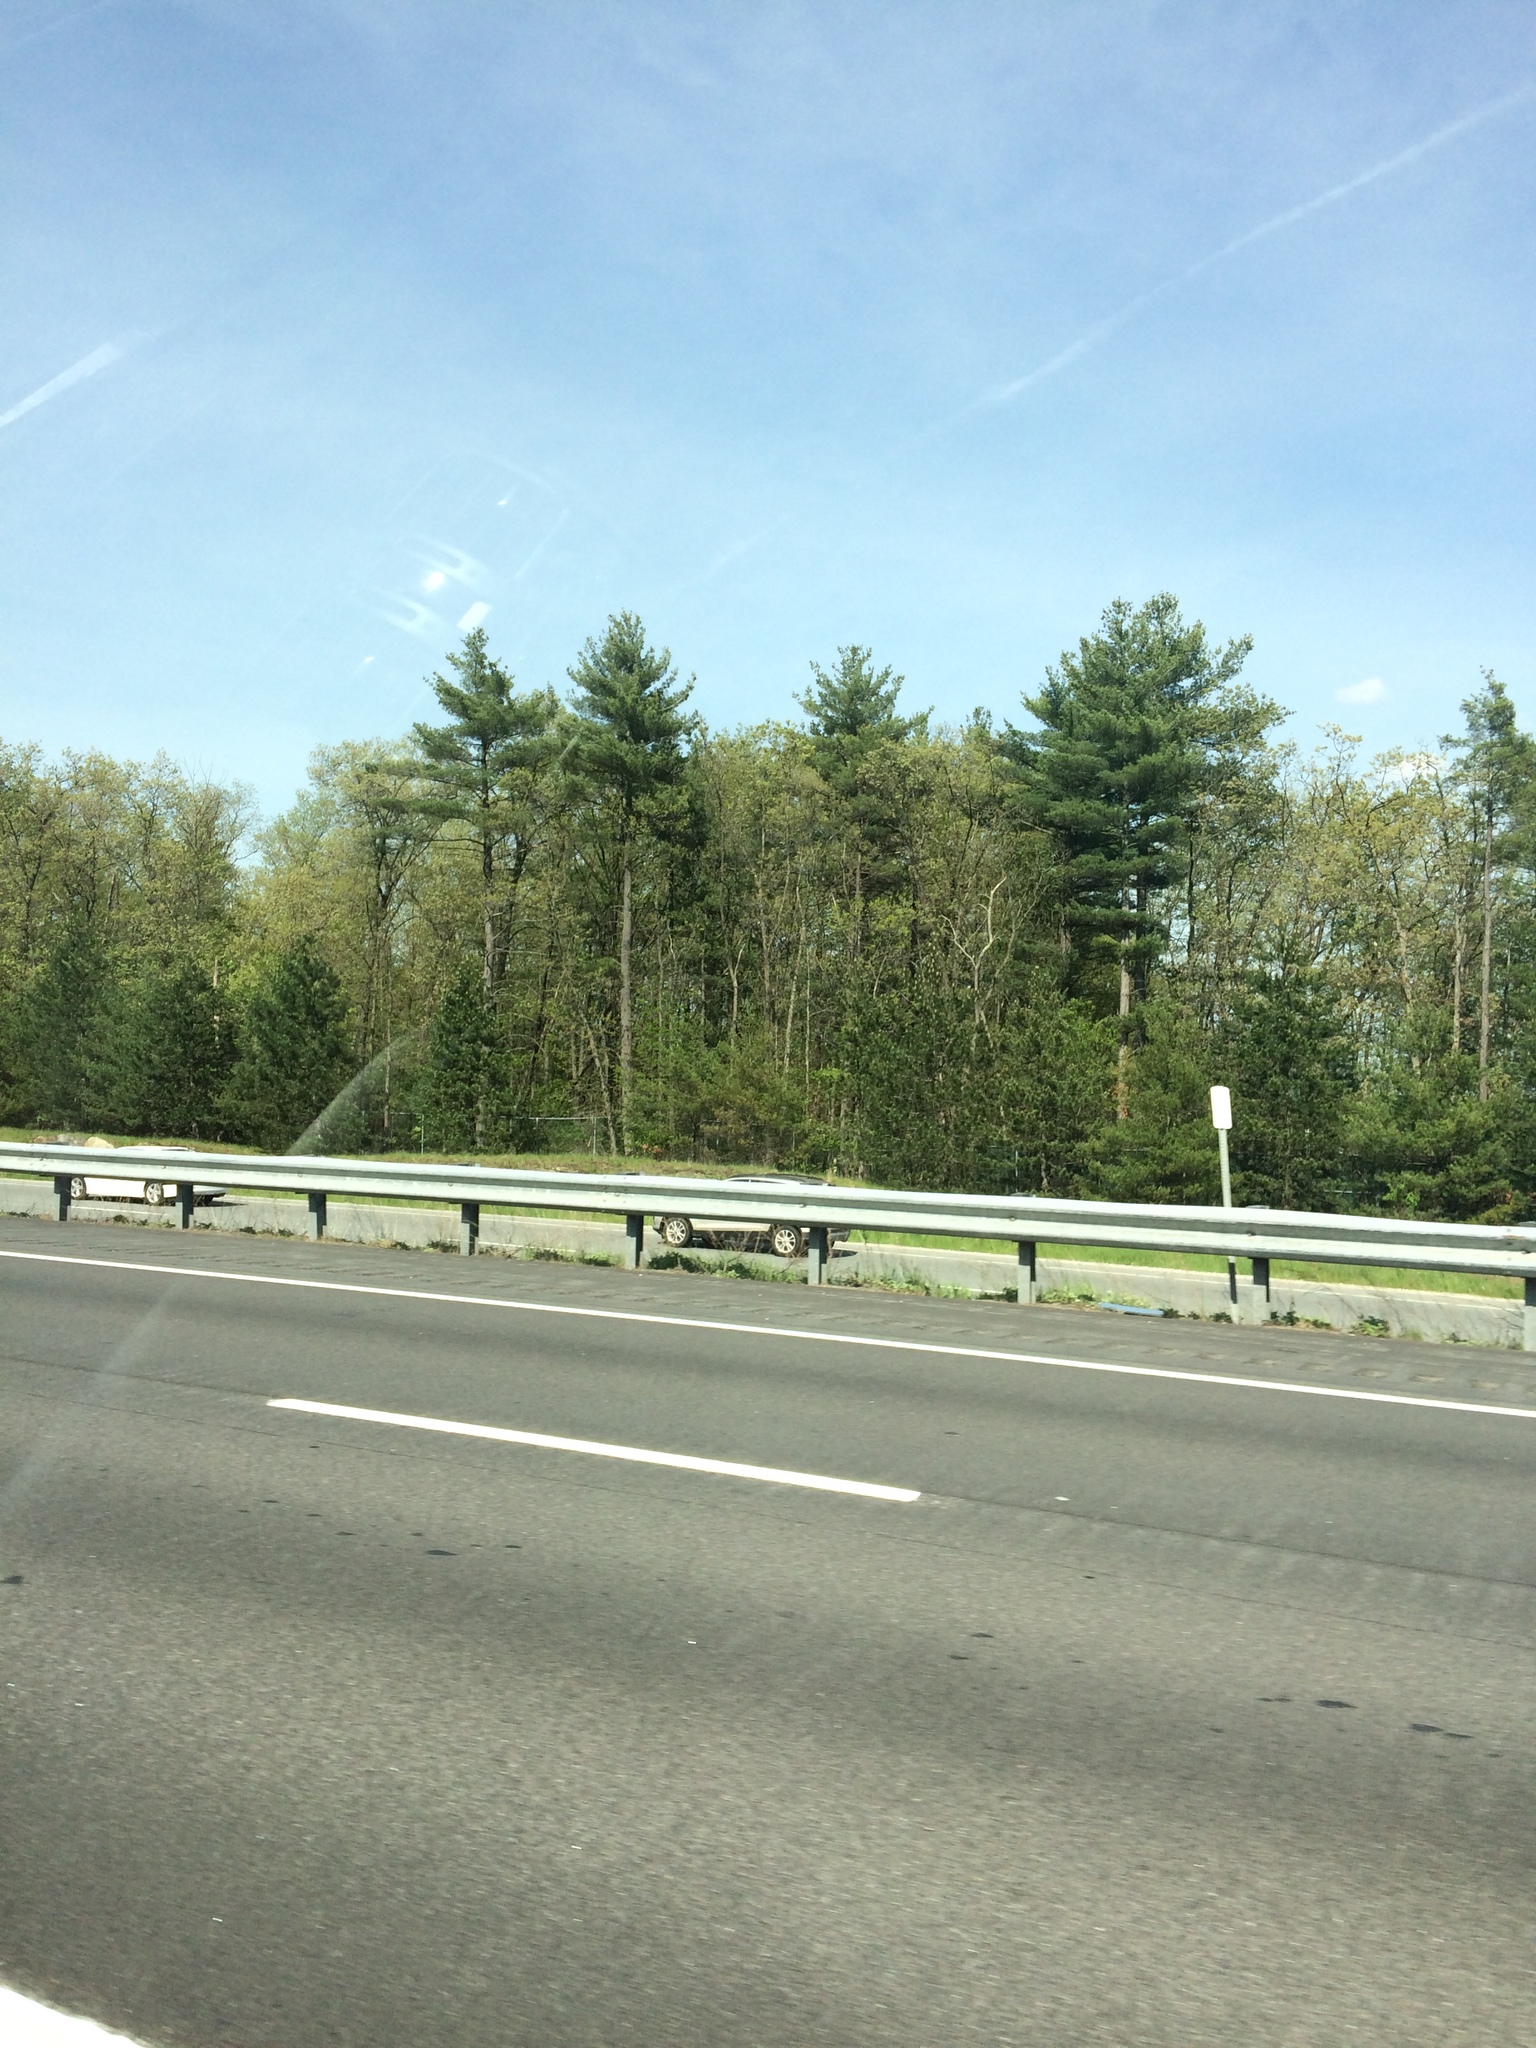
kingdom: Plantae
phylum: Tracheophyta
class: Pinopsida
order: Pinales
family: Pinaceae
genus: Pinus
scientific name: Pinus strobus
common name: Weymouth pine
